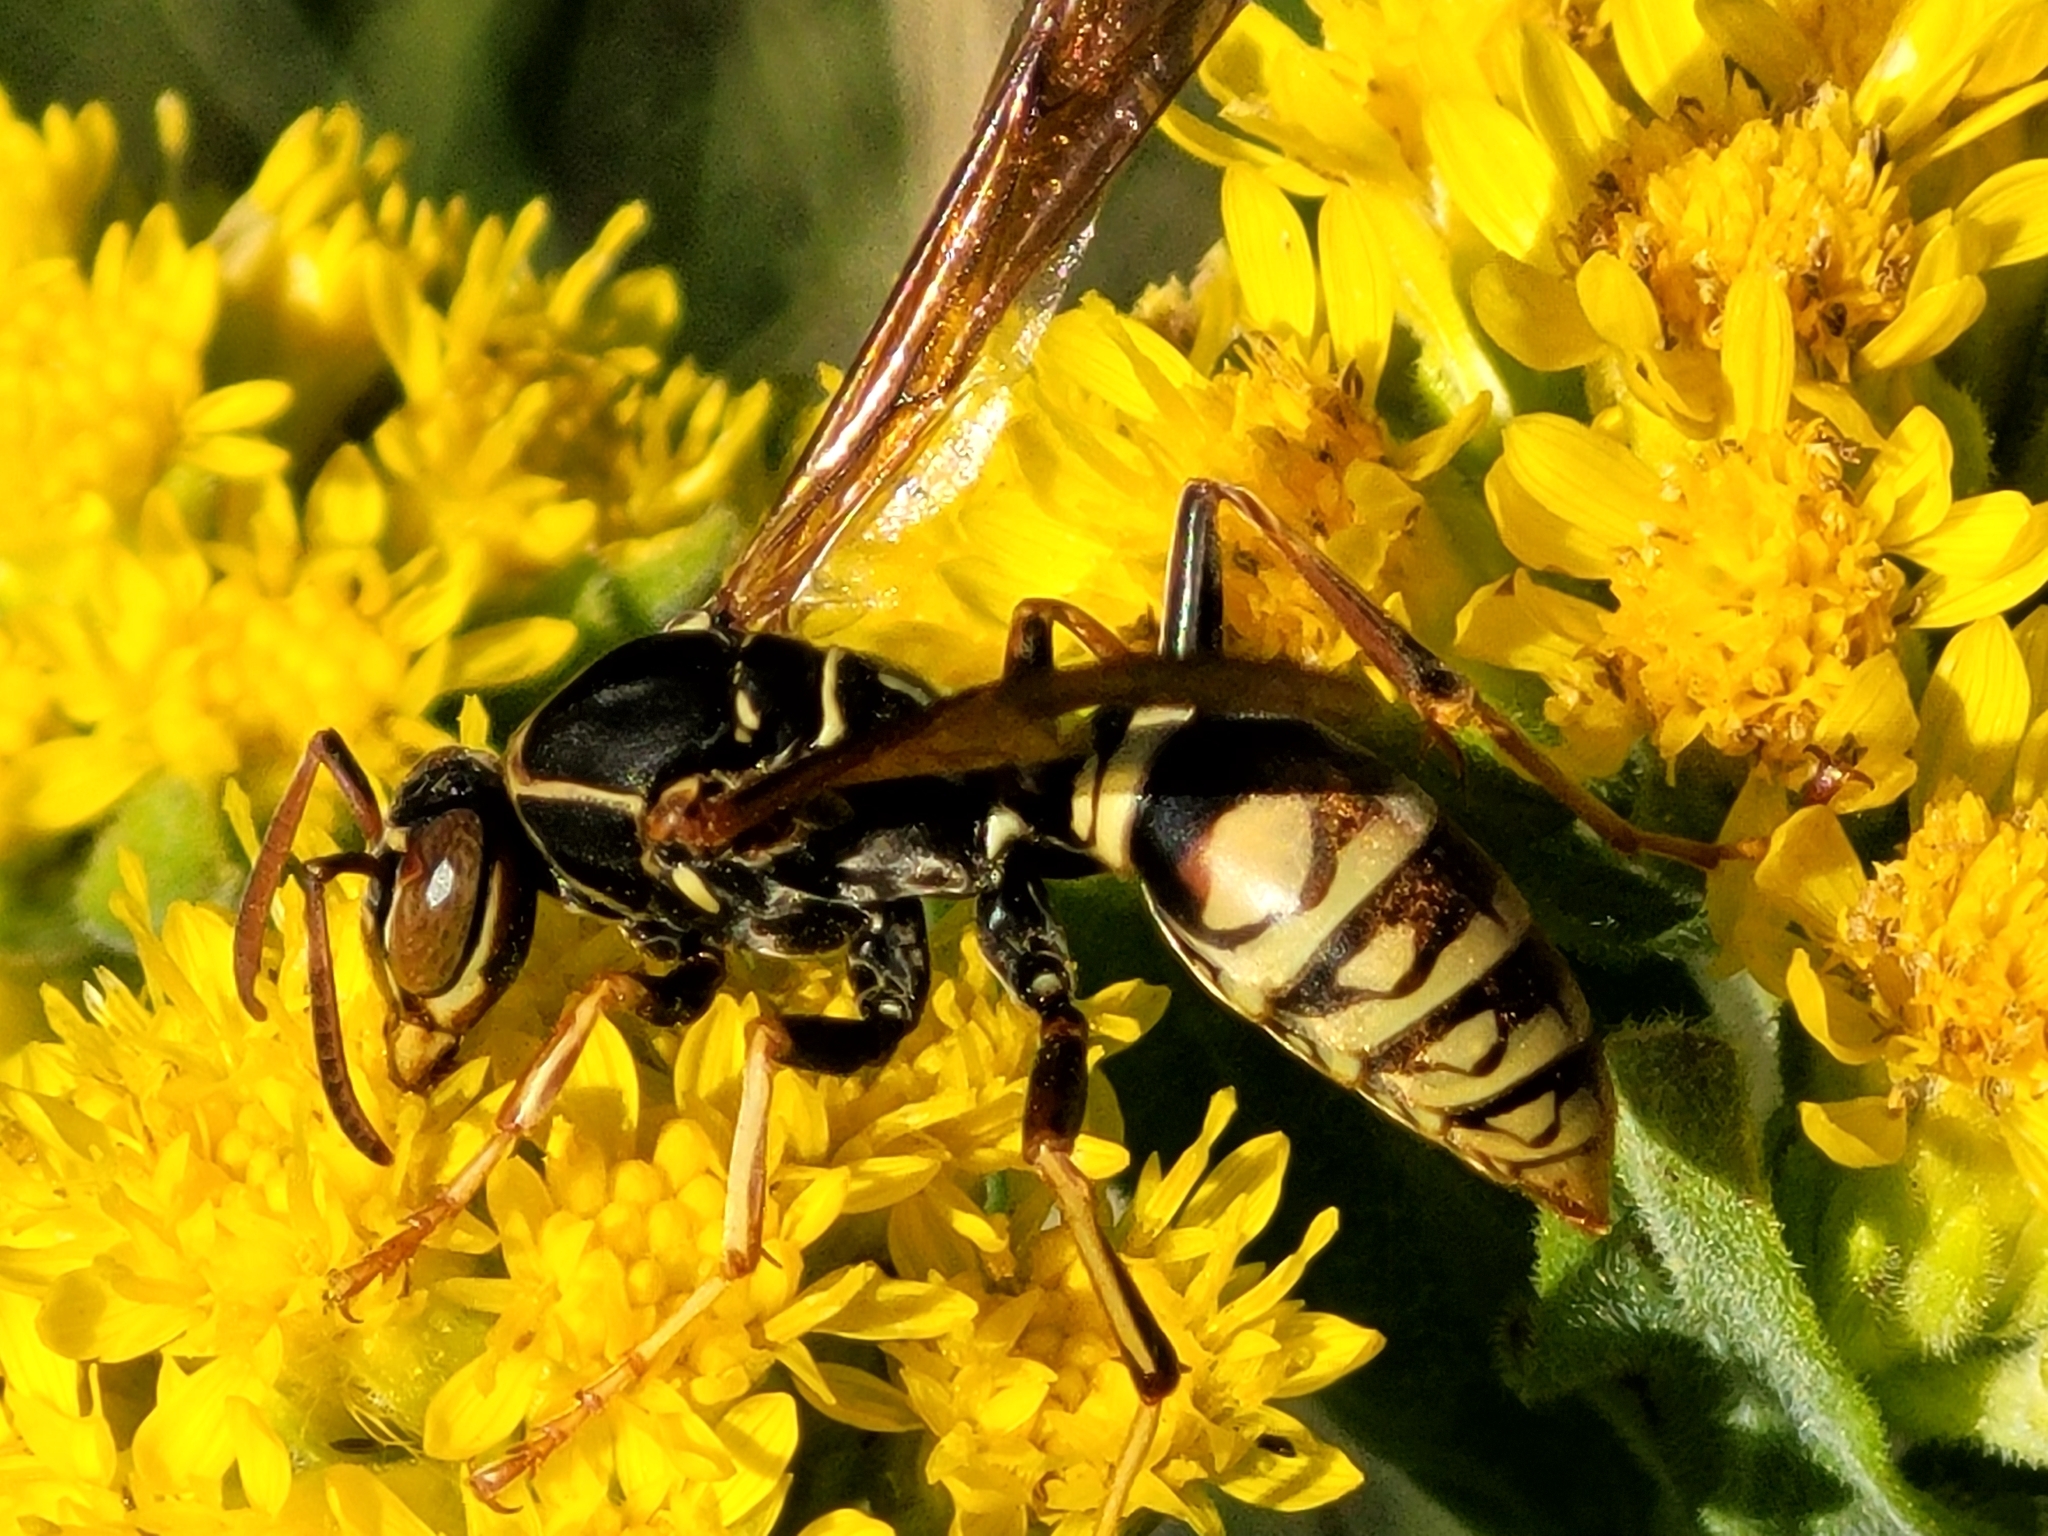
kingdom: Animalia
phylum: Arthropoda
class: Insecta
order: Hymenoptera
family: Eumenidae
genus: Polistes
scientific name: Polistes aurifer
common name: Paper wasp
